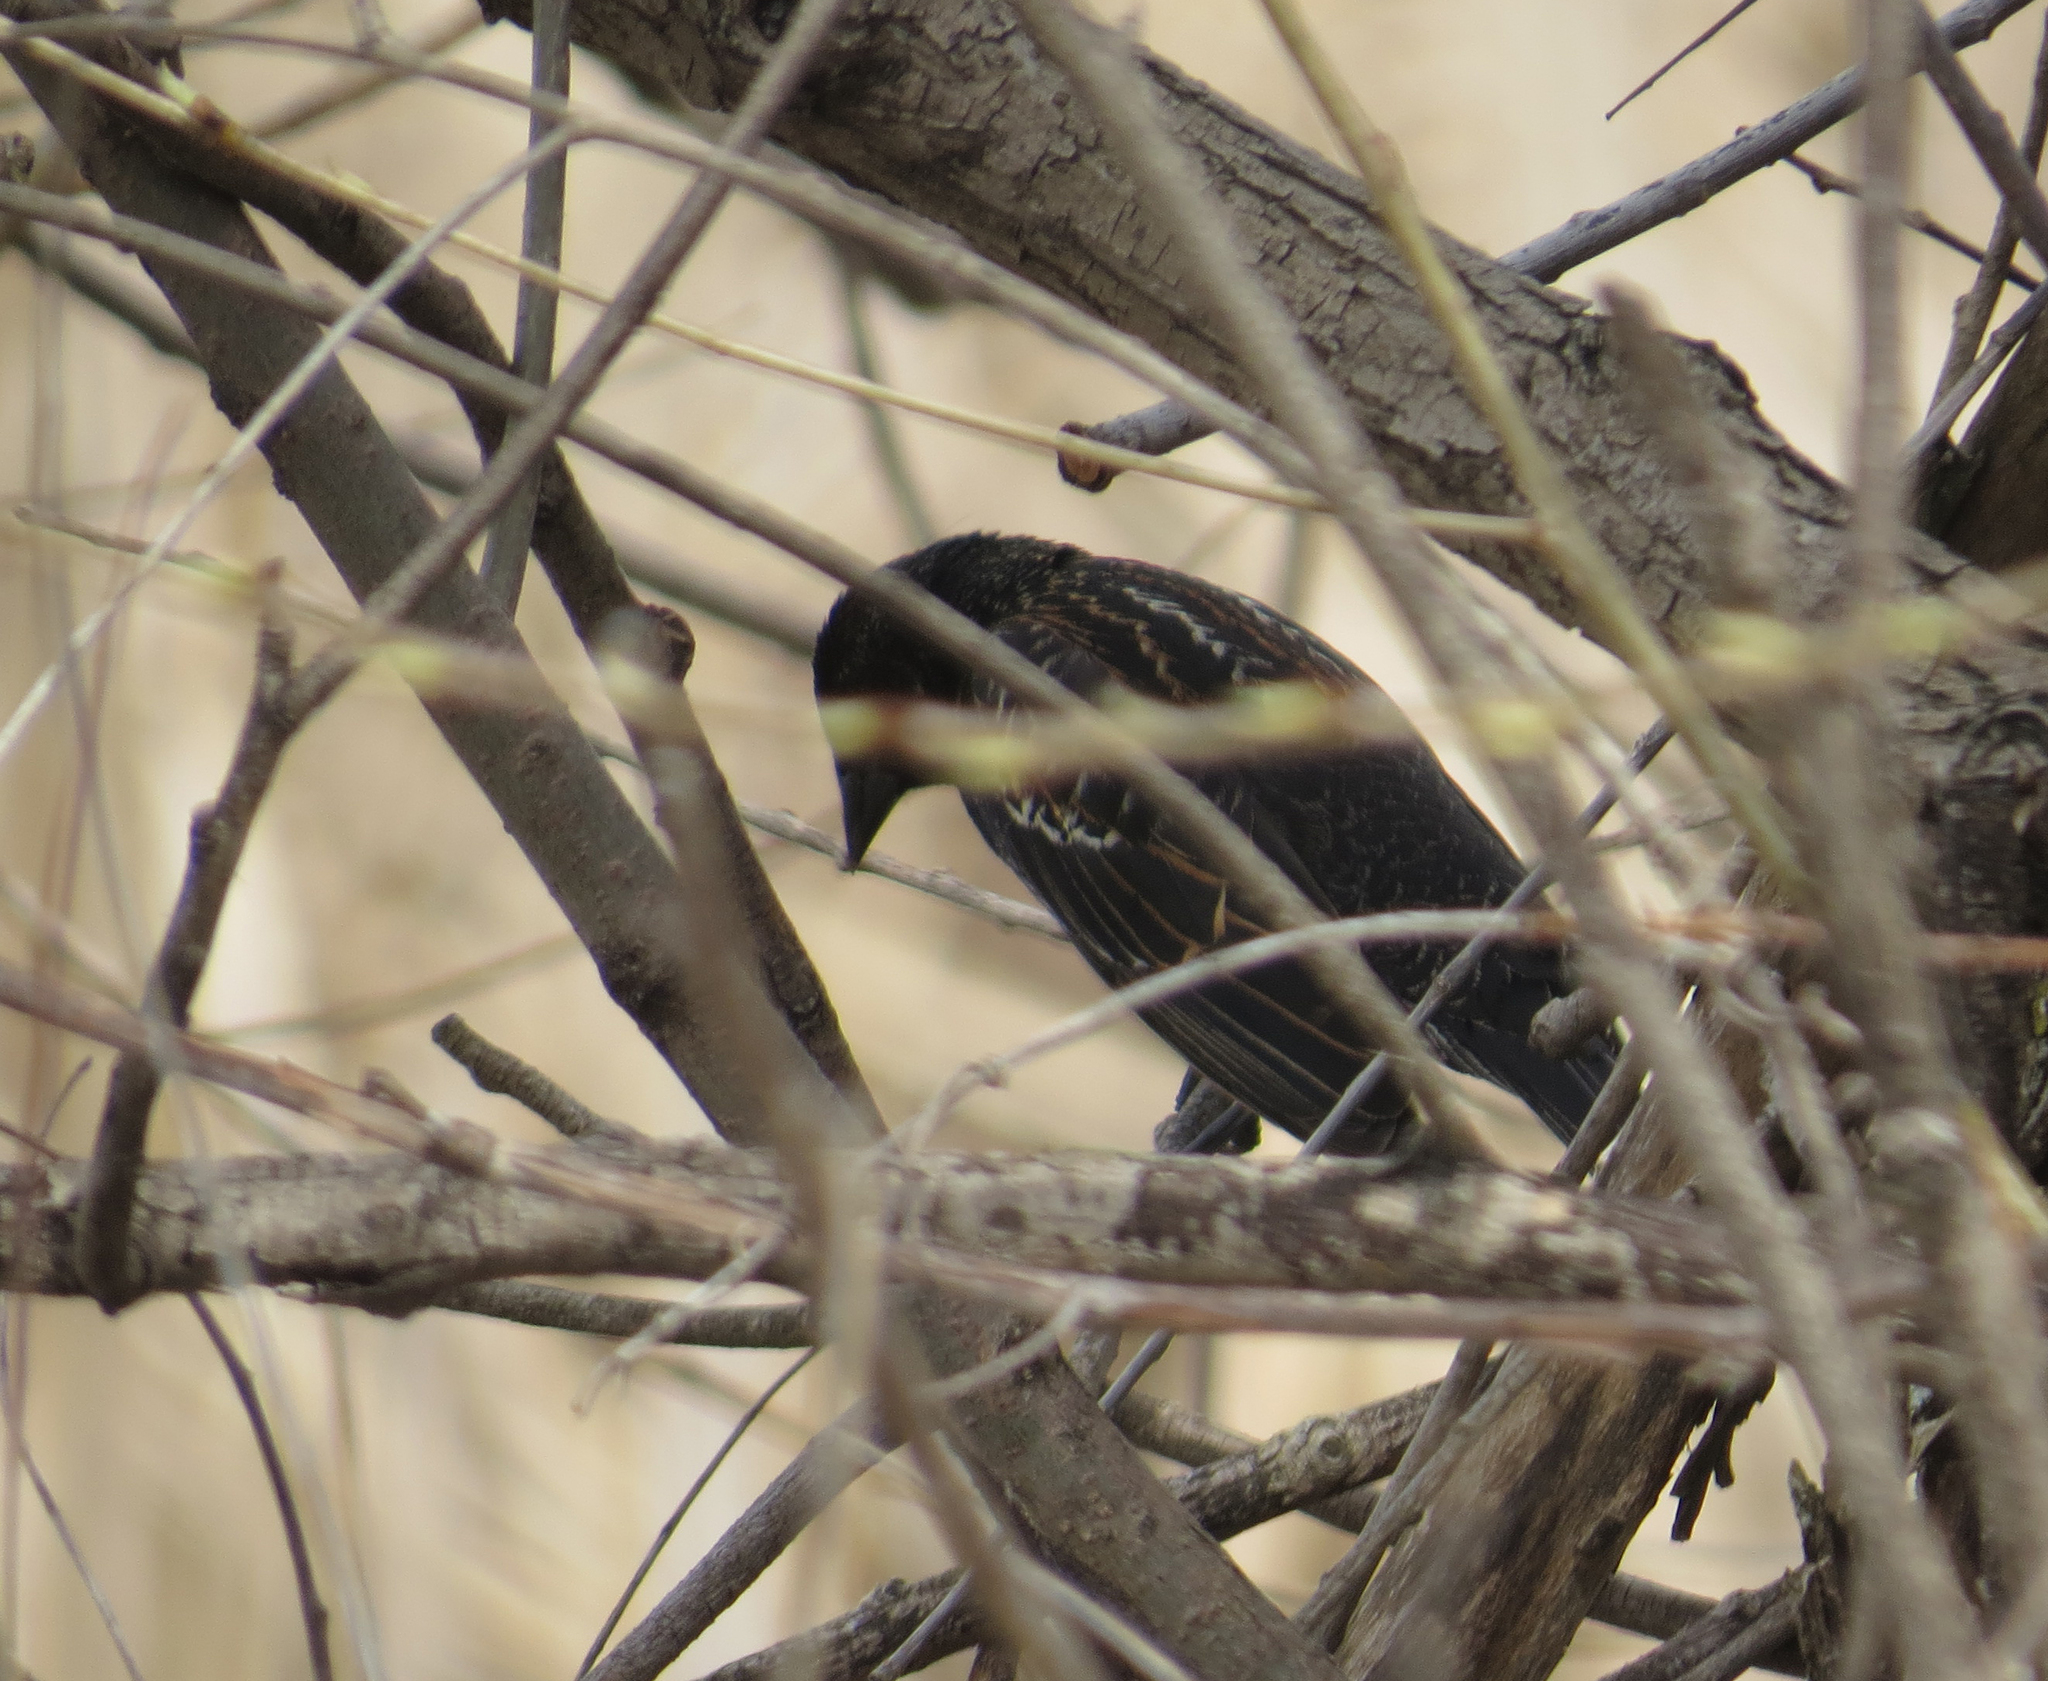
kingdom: Animalia
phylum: Chordata
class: Aves
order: Passeriformes
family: Icteridae
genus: Agelaius
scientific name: Agelaius phoeniceus
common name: Red-winged blackbird
